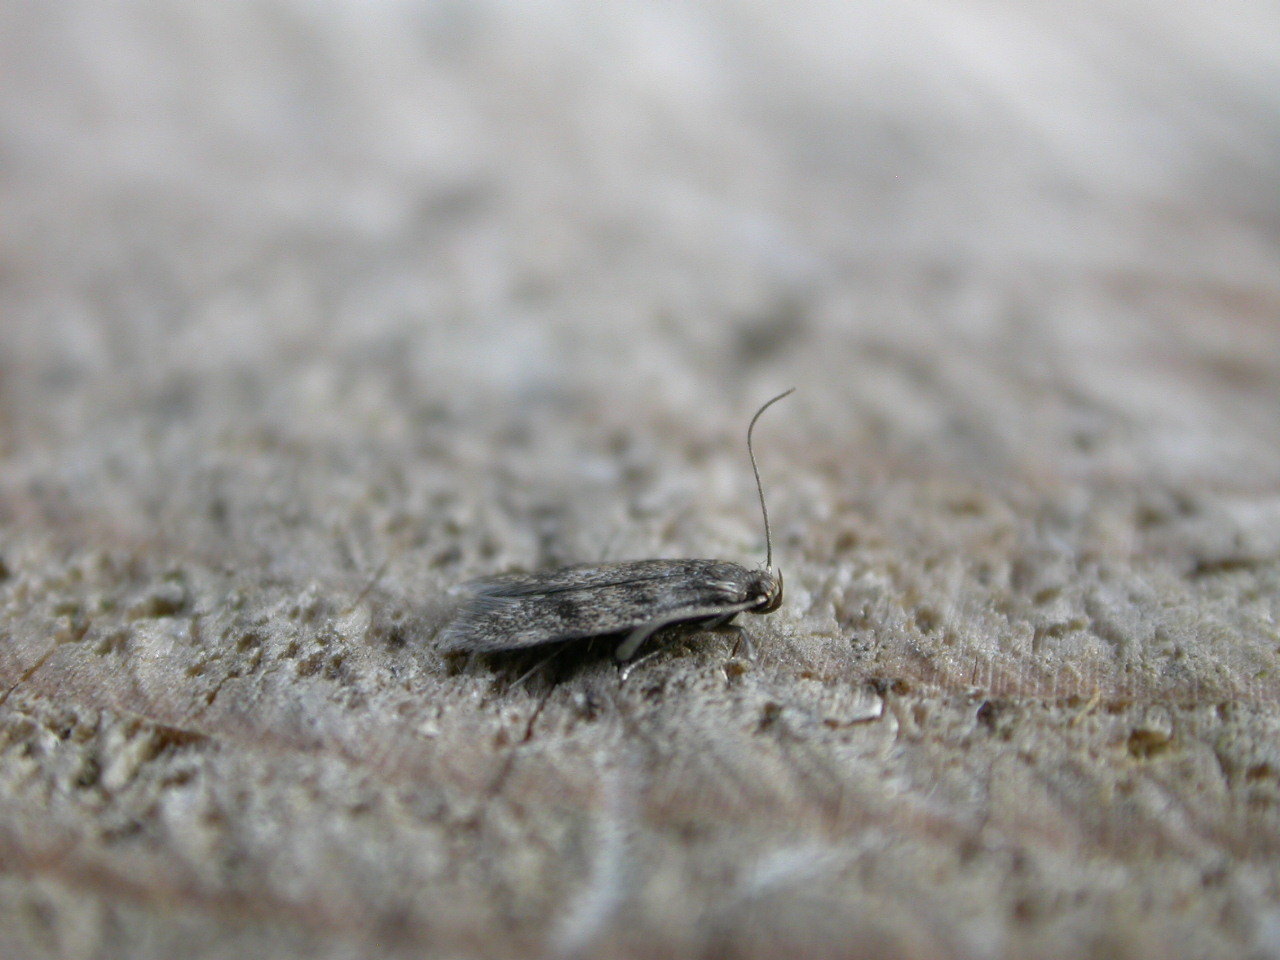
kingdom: Animalia
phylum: Arthropoda
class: Insecta
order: Lepidoptera
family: Oecophoridae
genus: Borkhausenia
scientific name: Borkhausenia fuscescens
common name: Small dingy tubic
